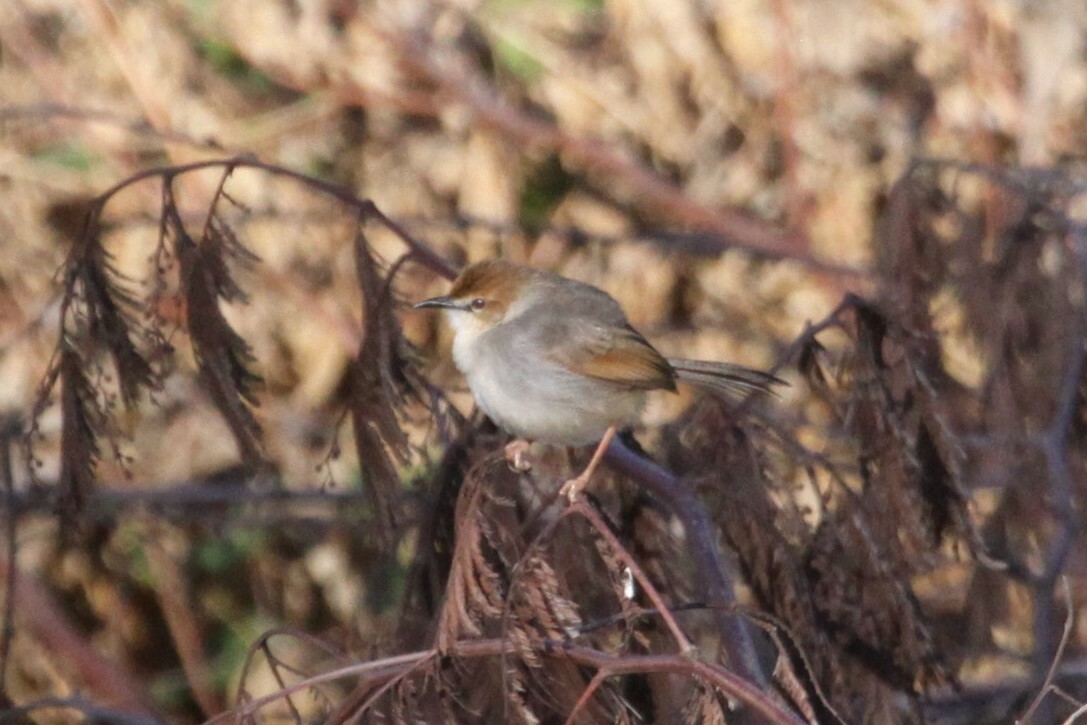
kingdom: Animalia
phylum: Chordata
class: Aves
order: Passeriformes
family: Cisticolidae
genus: Cisticola
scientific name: Cisticola cantans
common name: Singing cisticola
